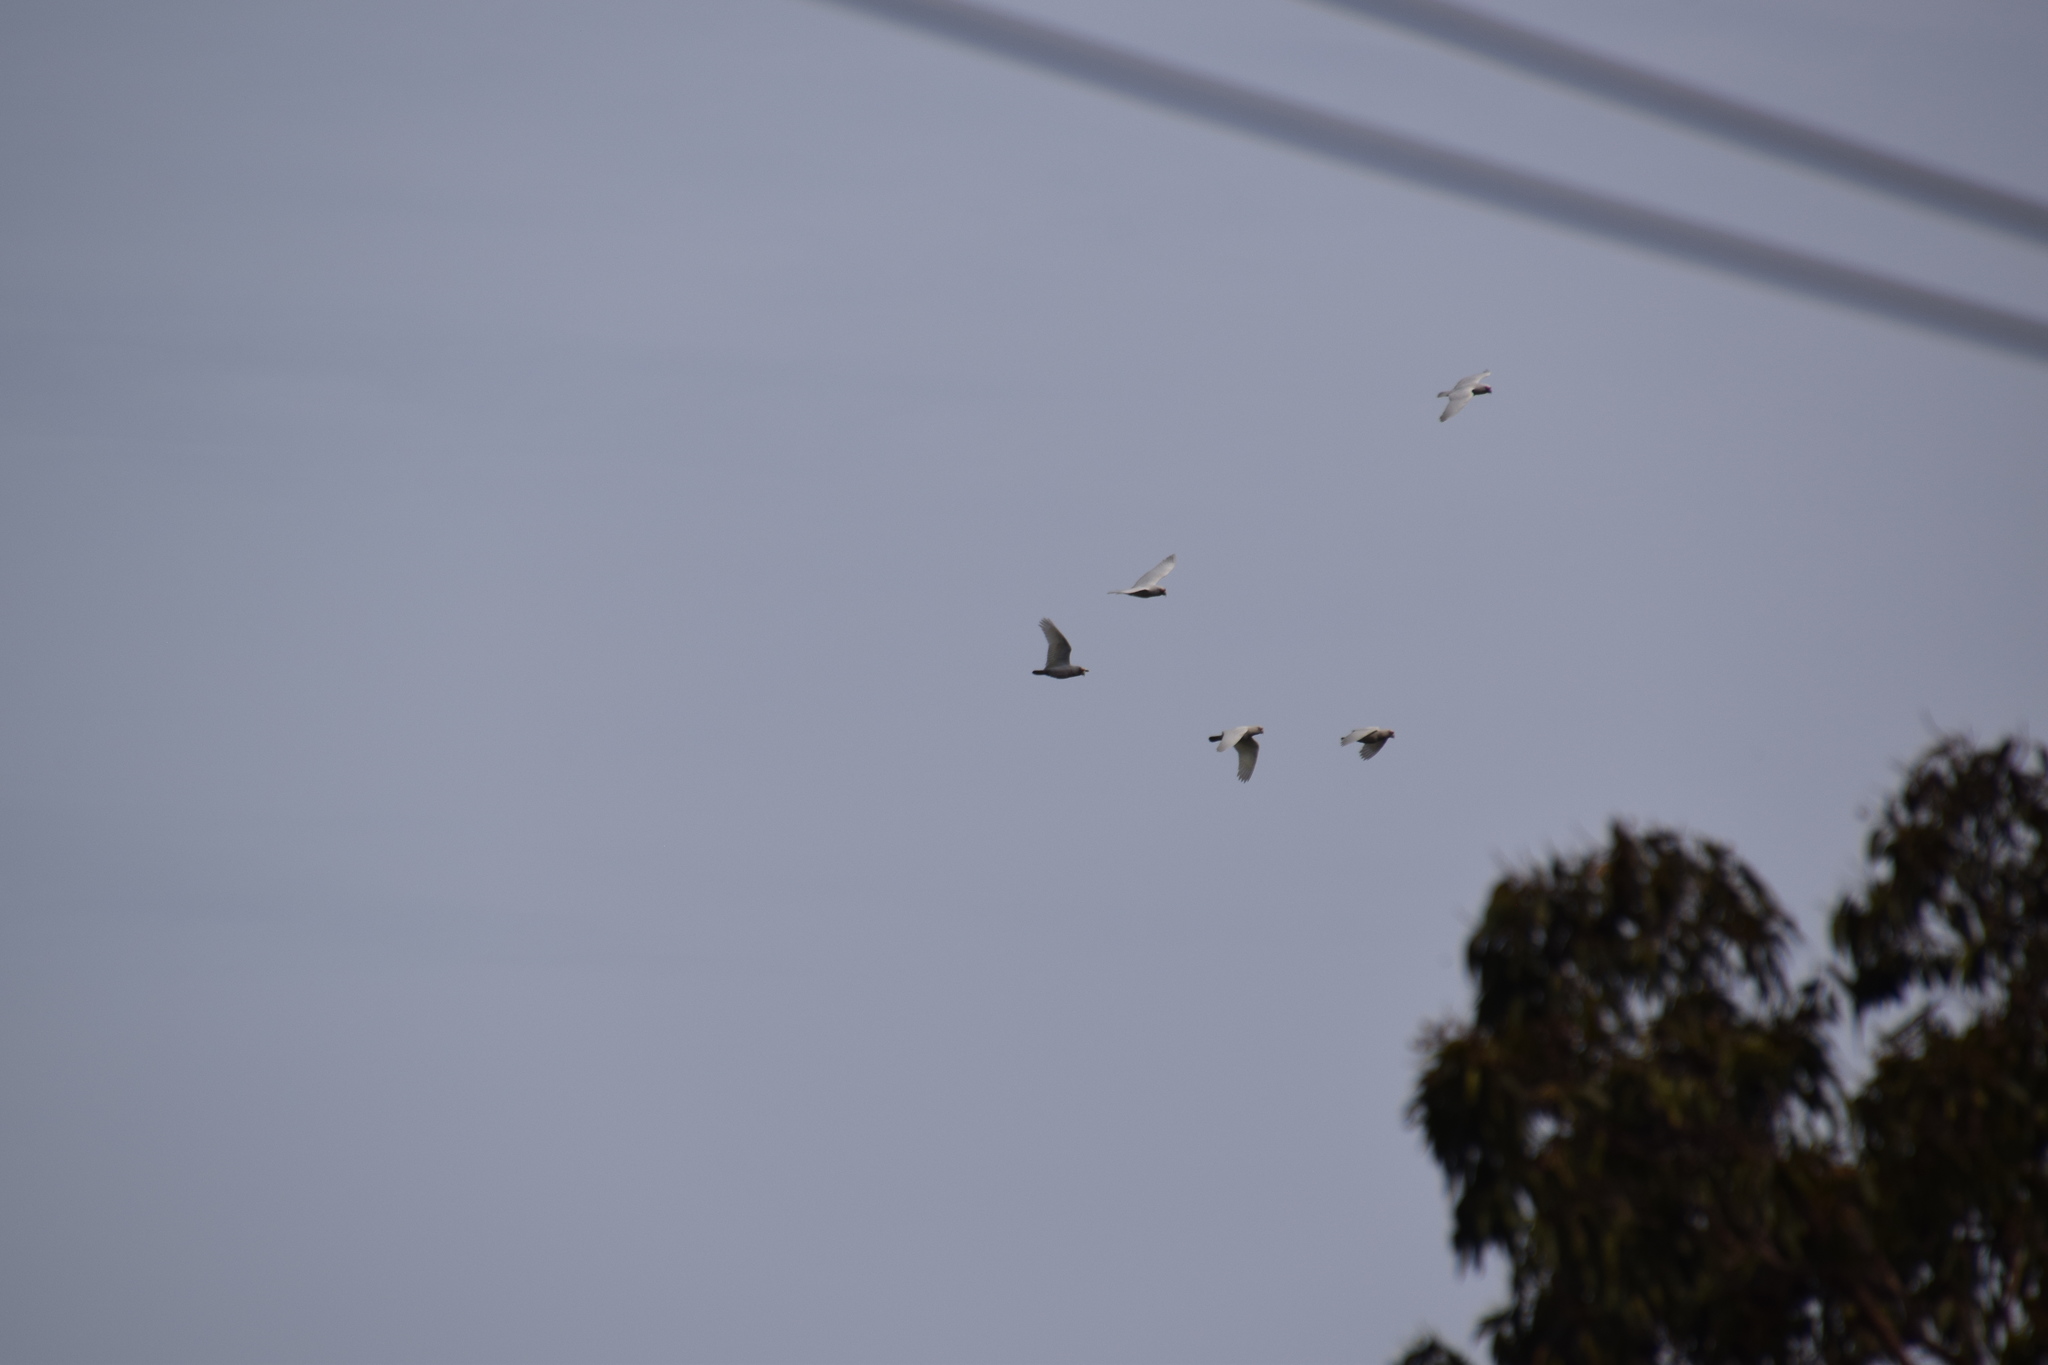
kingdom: Animalia
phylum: Chordata
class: Aves
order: Psittaciformes
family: Psittacidae
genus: Cacatua
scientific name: Cacatua tenuirostris
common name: Long-billed corella
